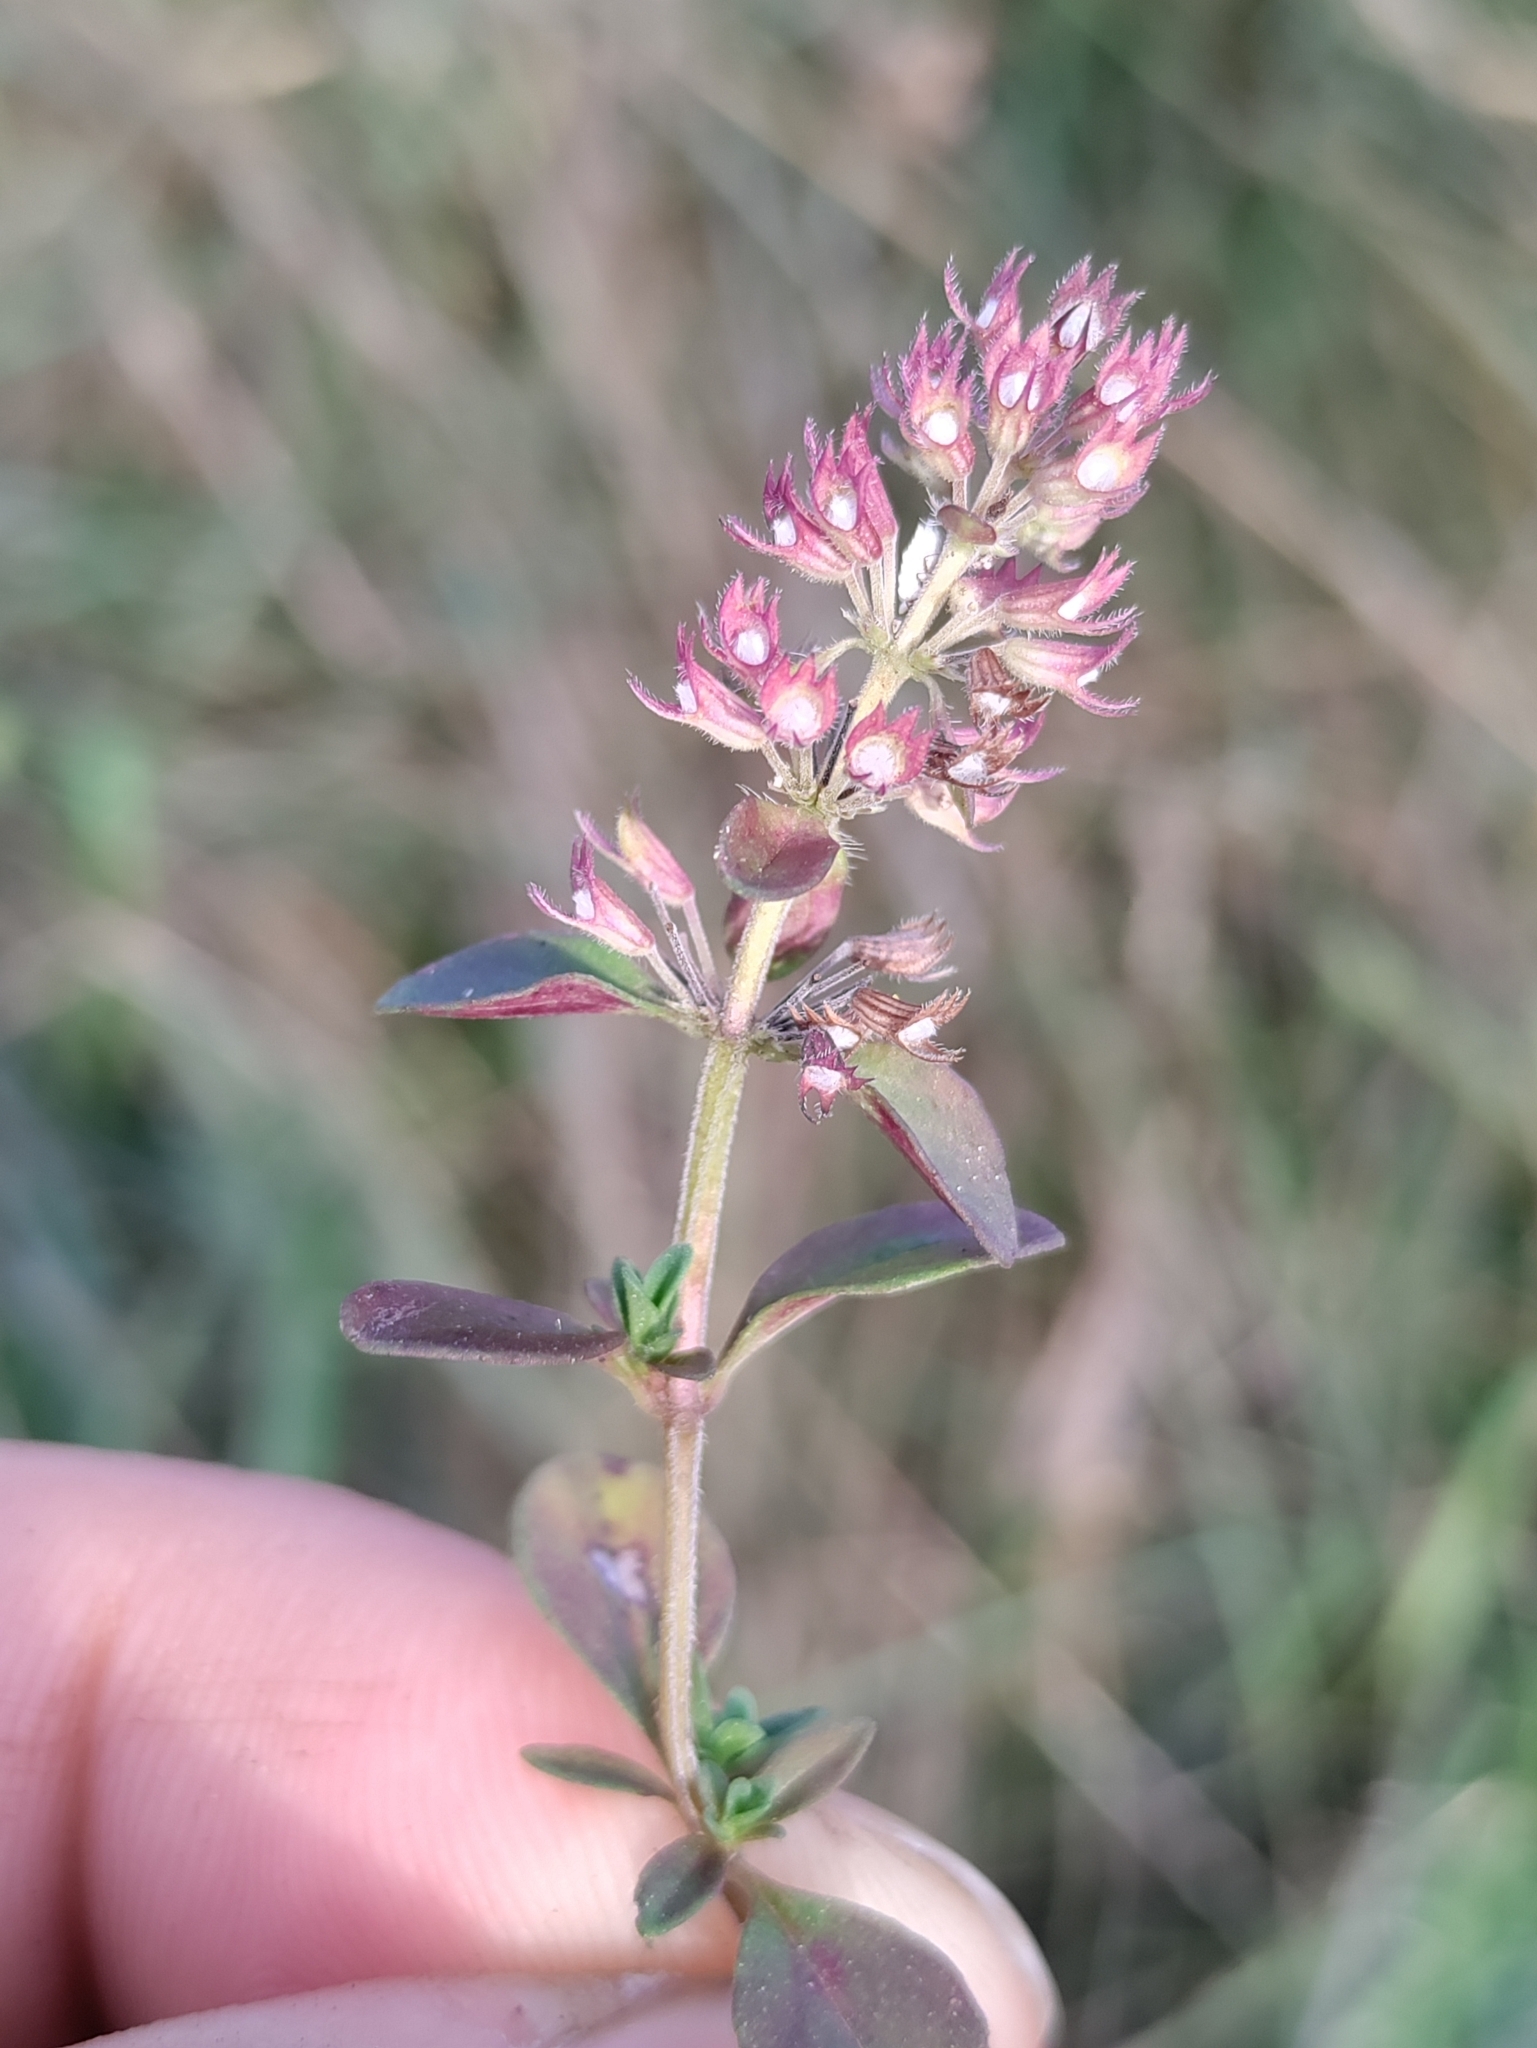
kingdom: Plantae
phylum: Tracheophyta
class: Magnoliopsida
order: Lamiales
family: Lamiaceae
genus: Thymus
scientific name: Thymus pulegioides
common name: Large thyme
